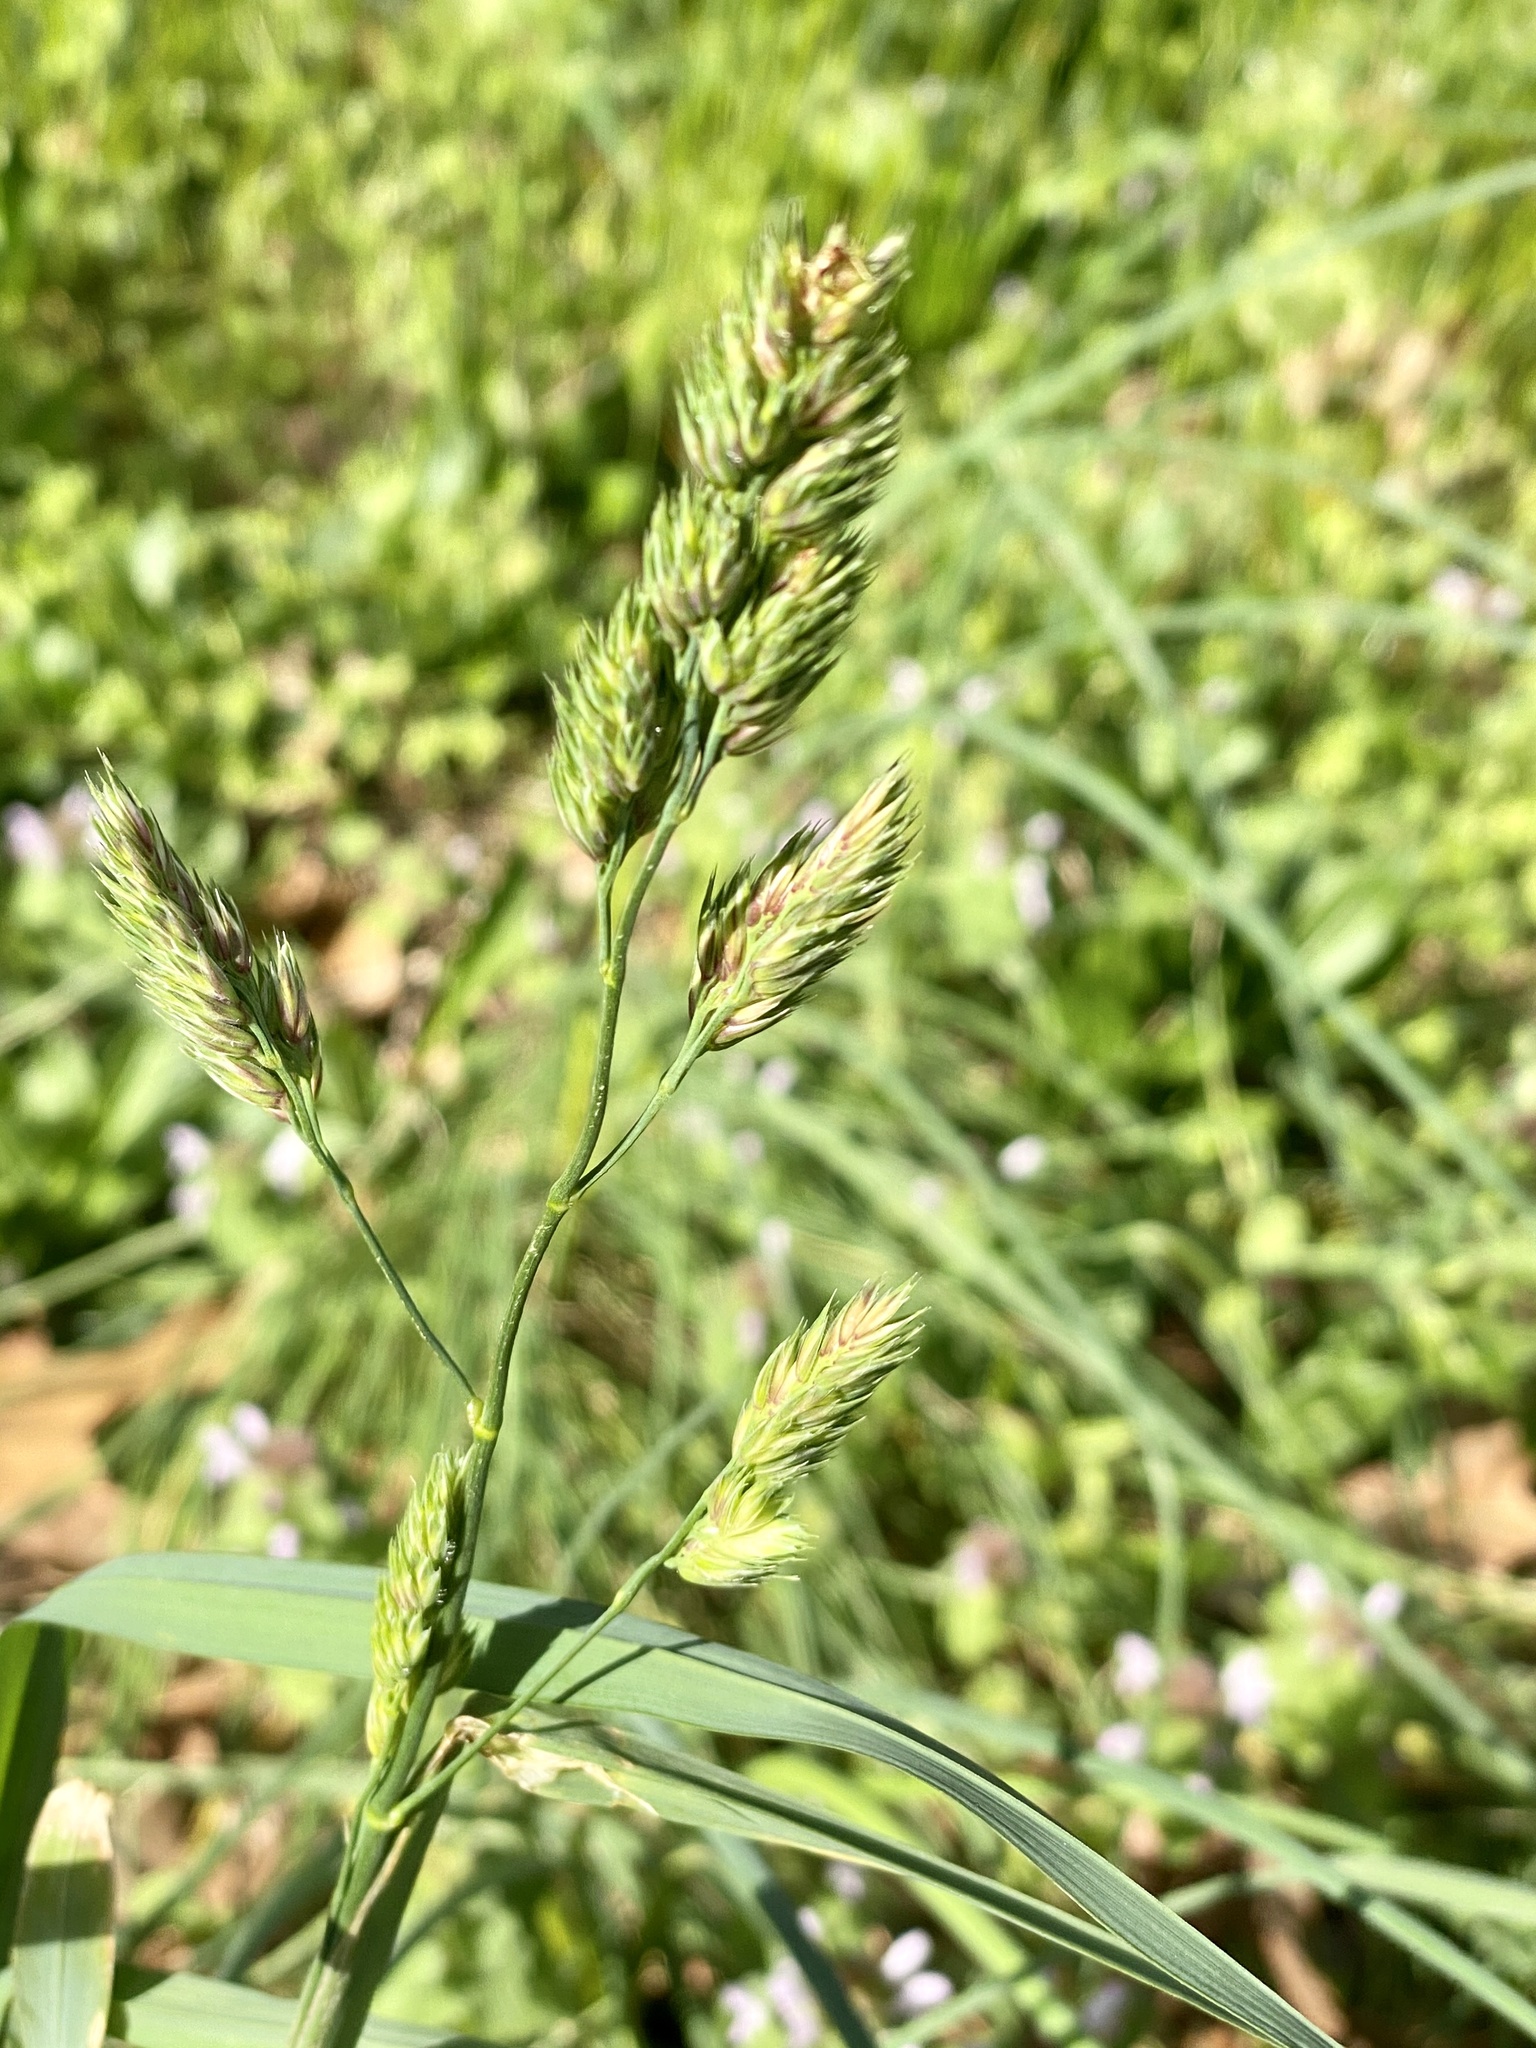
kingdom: Plantae
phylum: Tracheophyta
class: Liliopsida
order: Poales
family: Poaceae
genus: Dactylis
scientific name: Dactylis glomerata
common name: Orchardgrass
